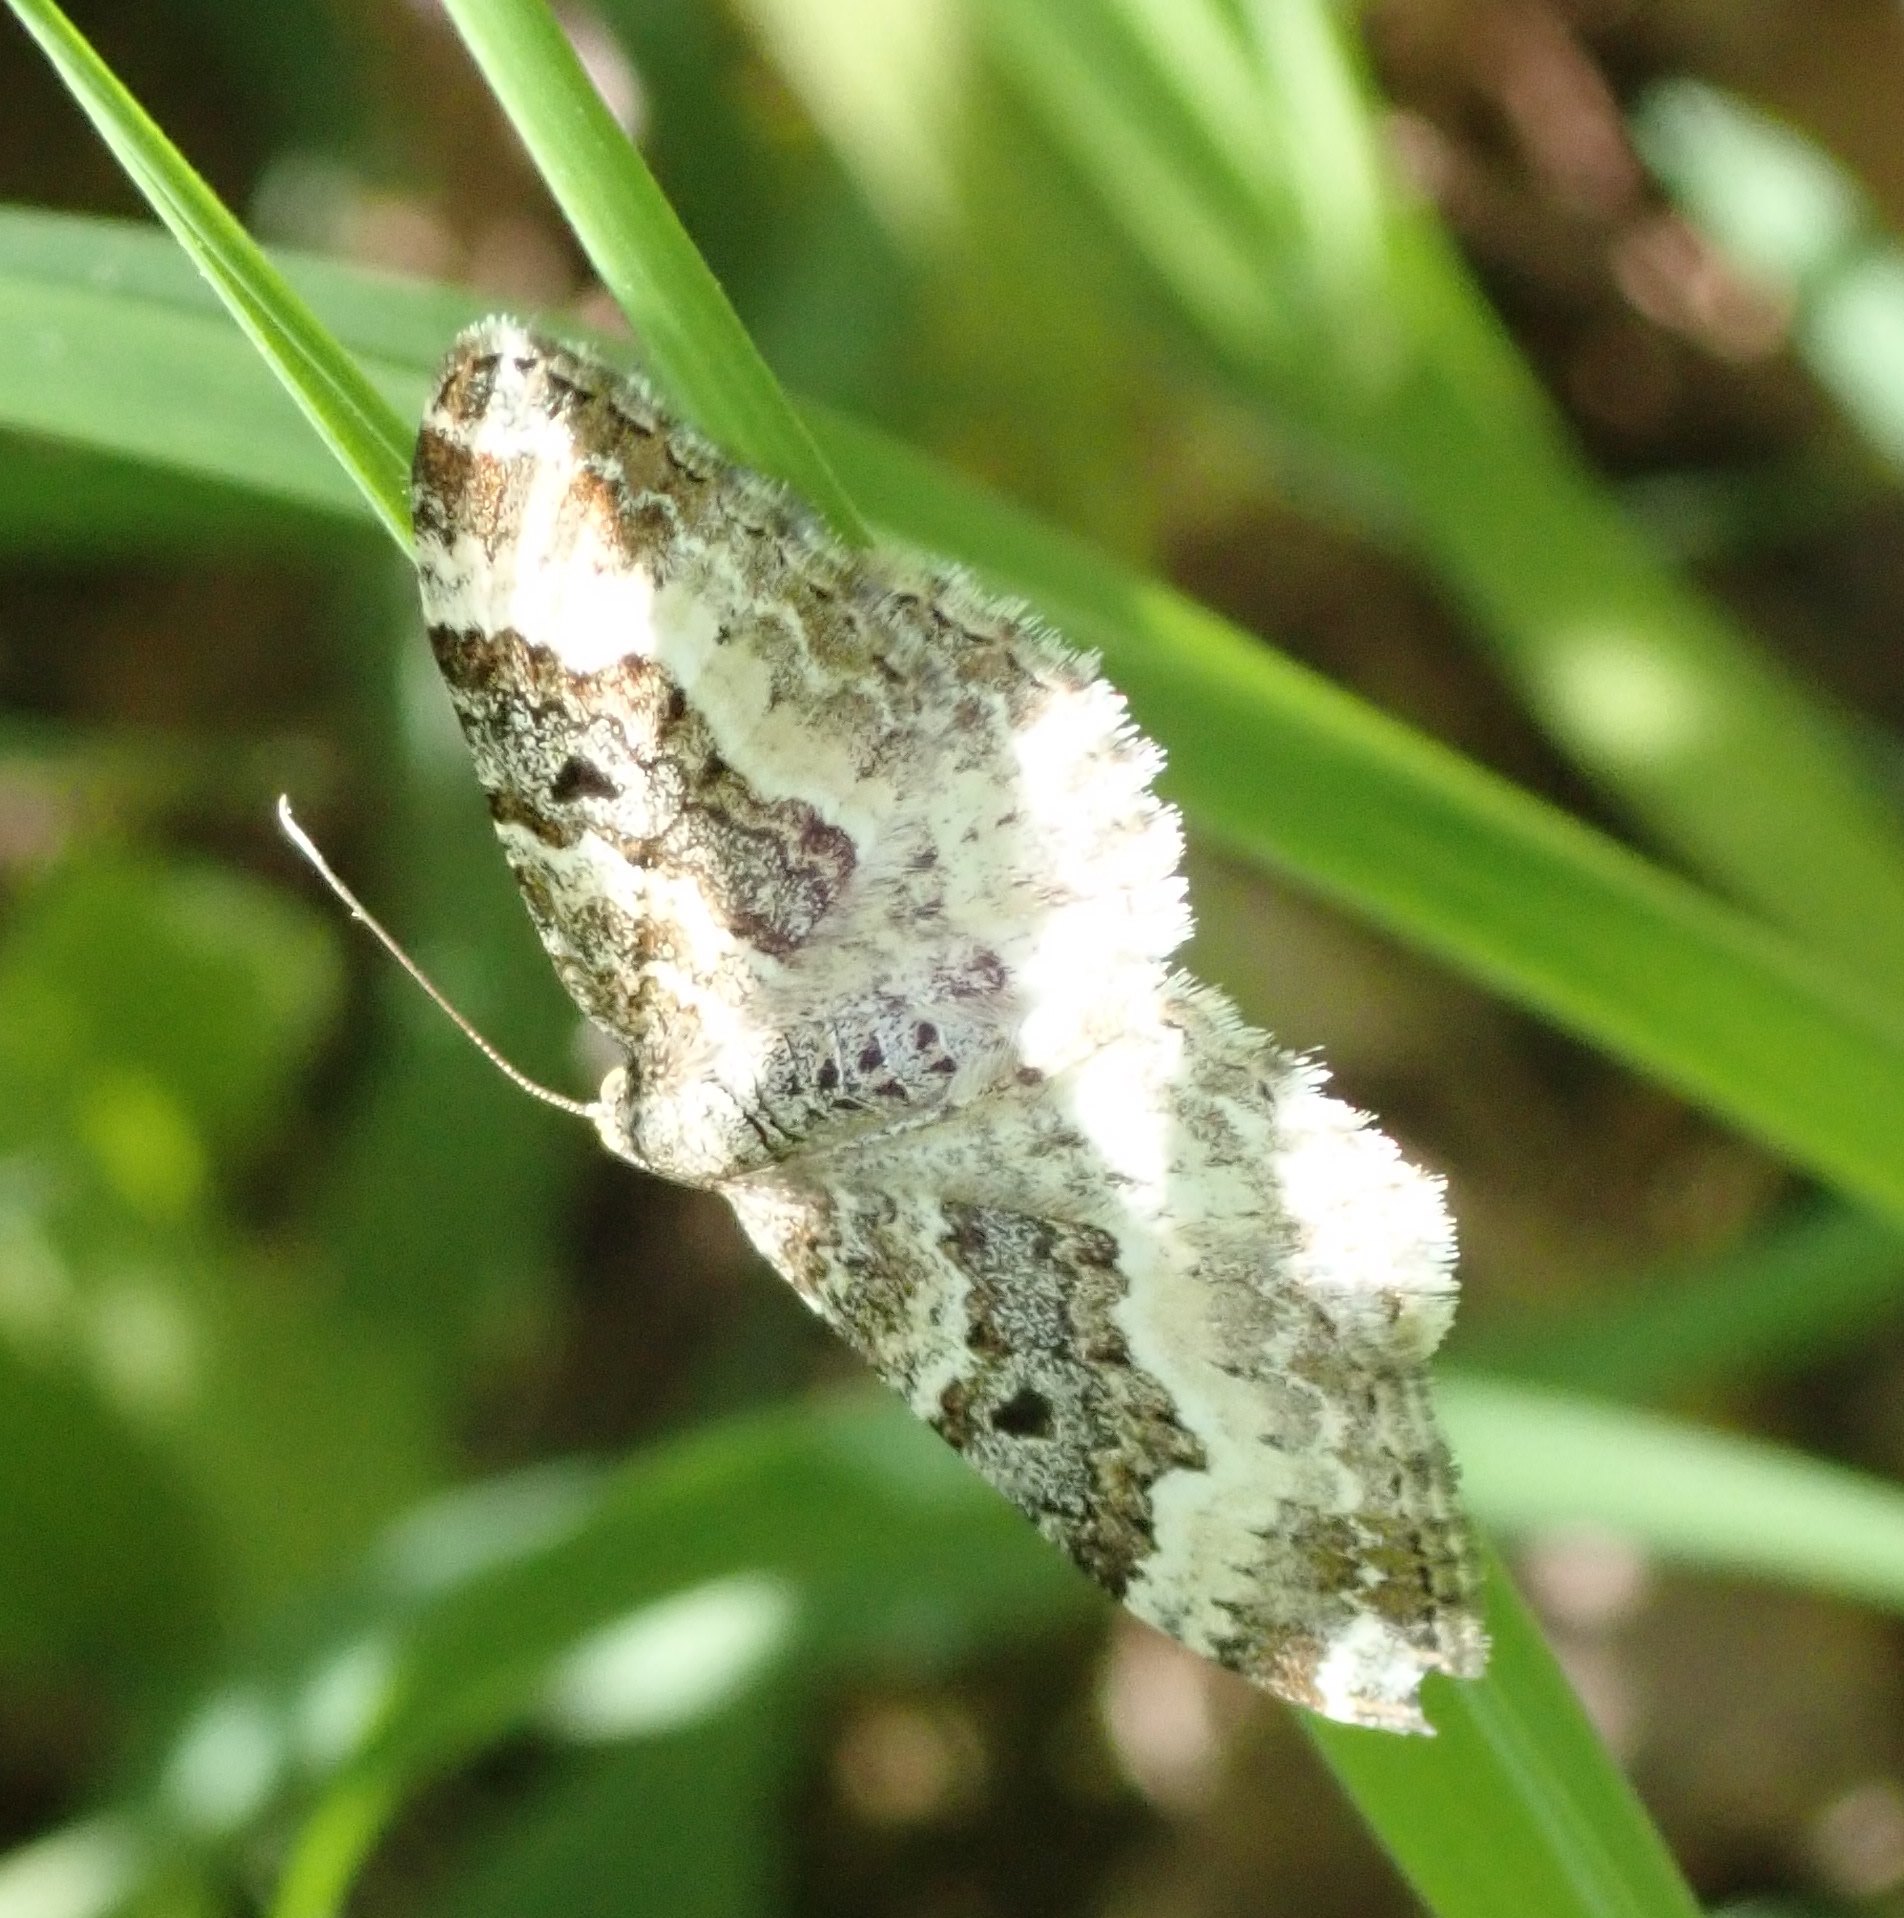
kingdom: Animalia
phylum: Arthropoda
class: Insecta
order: Lepidoptera
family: Geometridae
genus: Epirrhoe
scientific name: Epirrhoe alternata
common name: Common carpet
